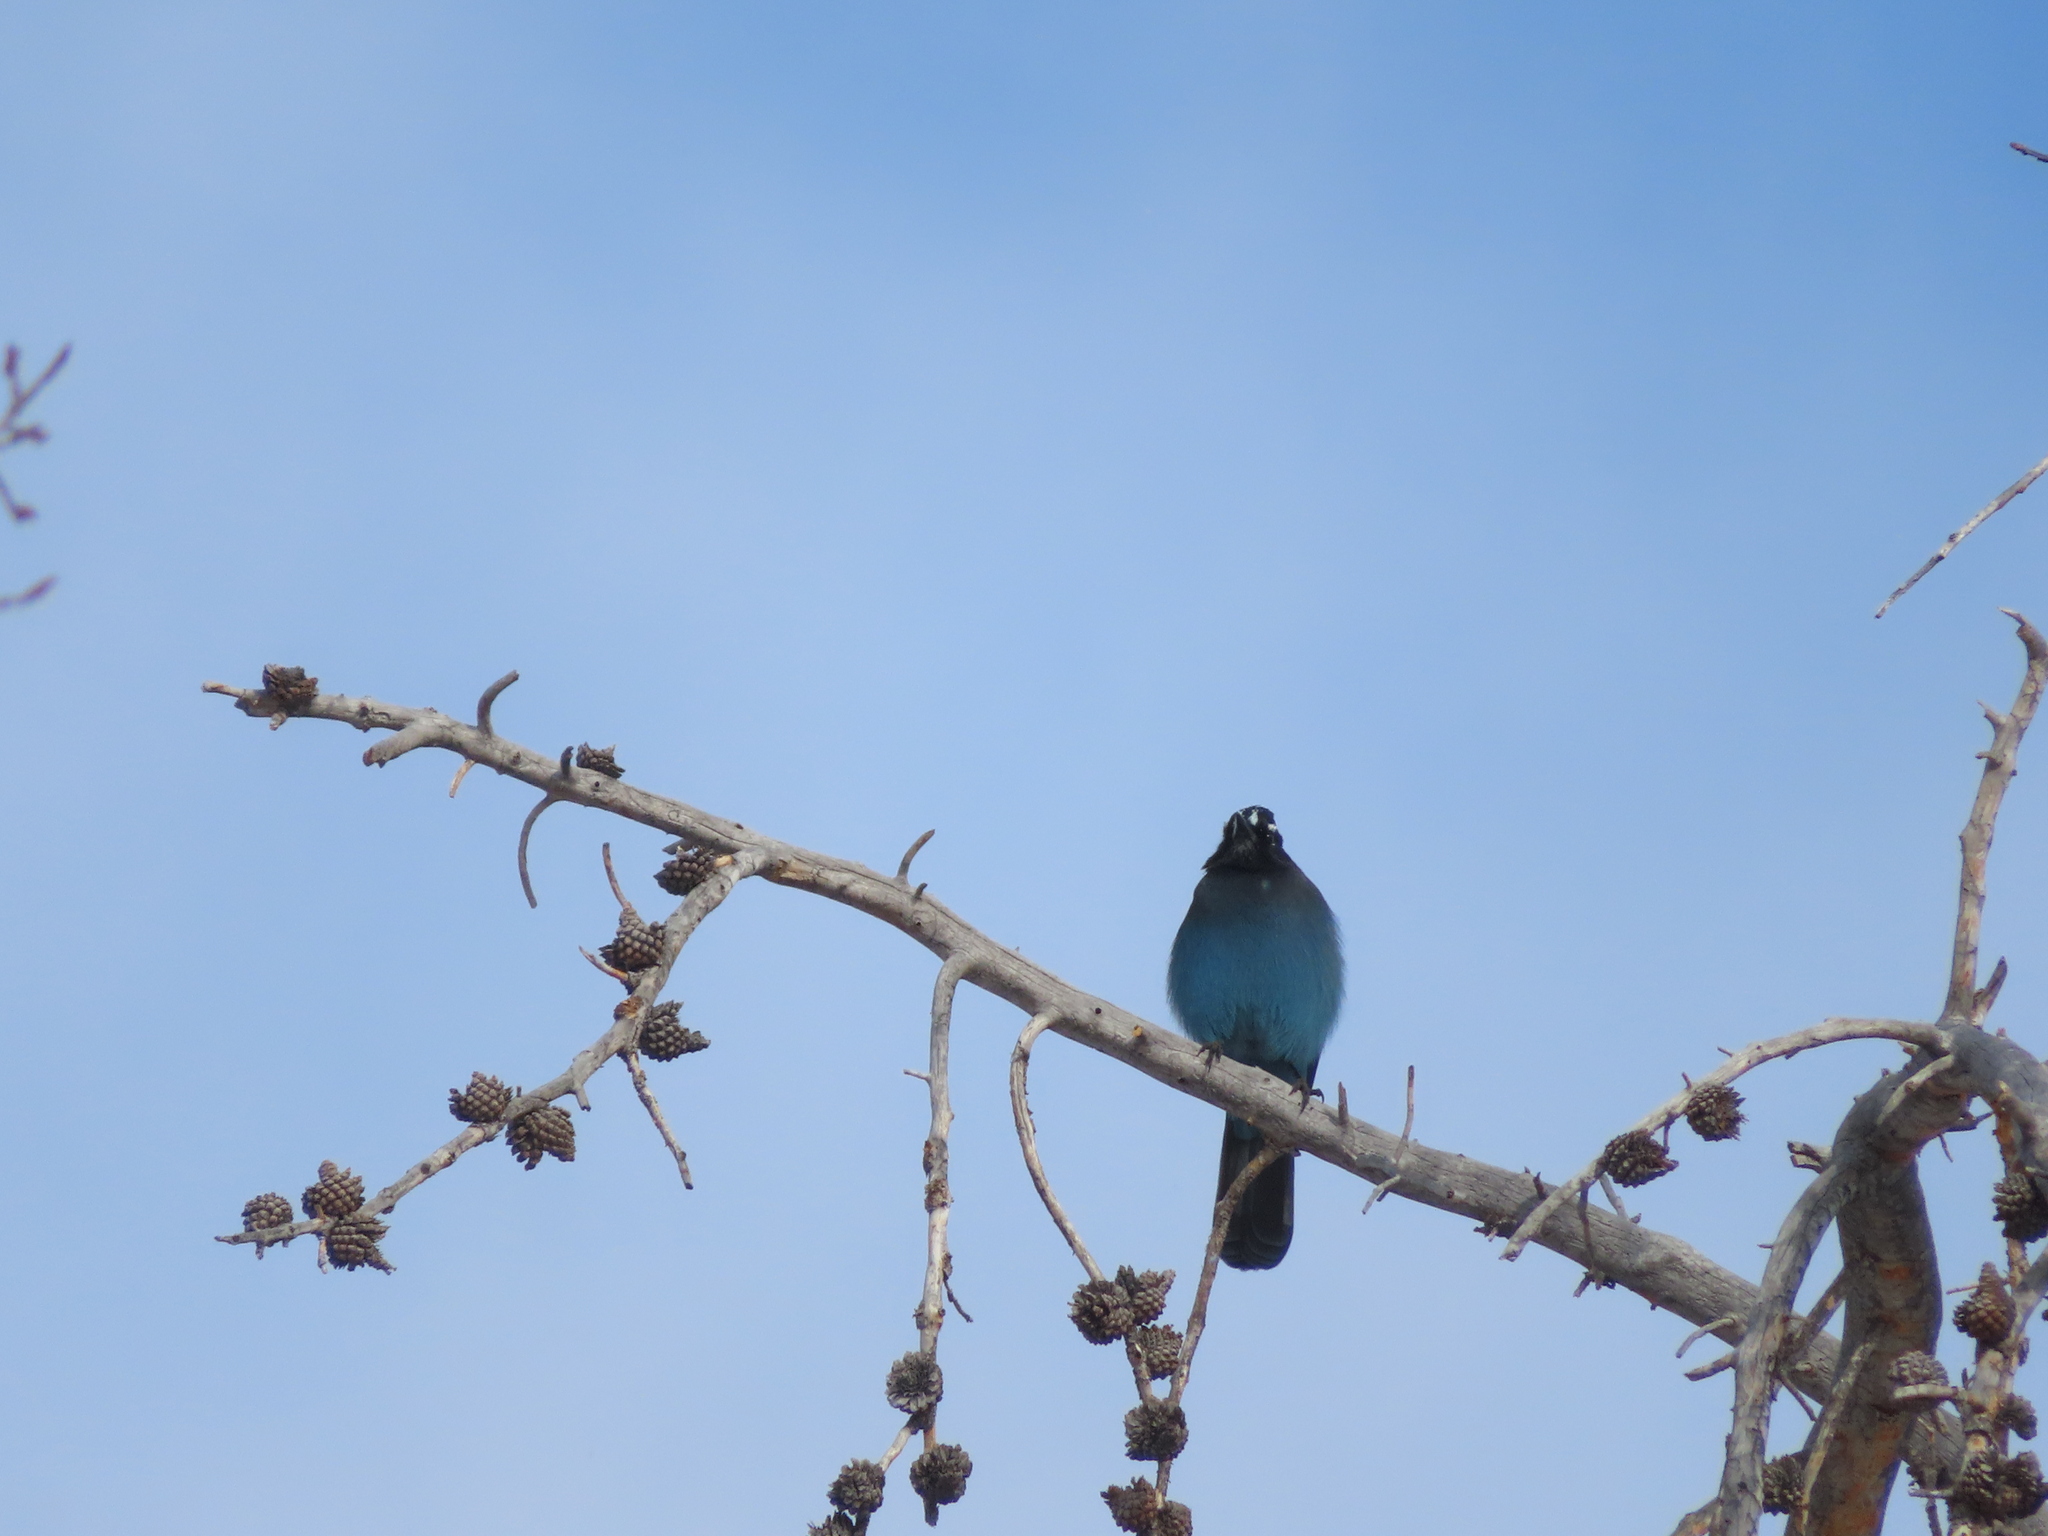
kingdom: Animalia
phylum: Chordata
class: Aves
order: Passeriformes
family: Corvidae
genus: Cyanocitta
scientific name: Cyanocitta stelleri
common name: Steller's jay
